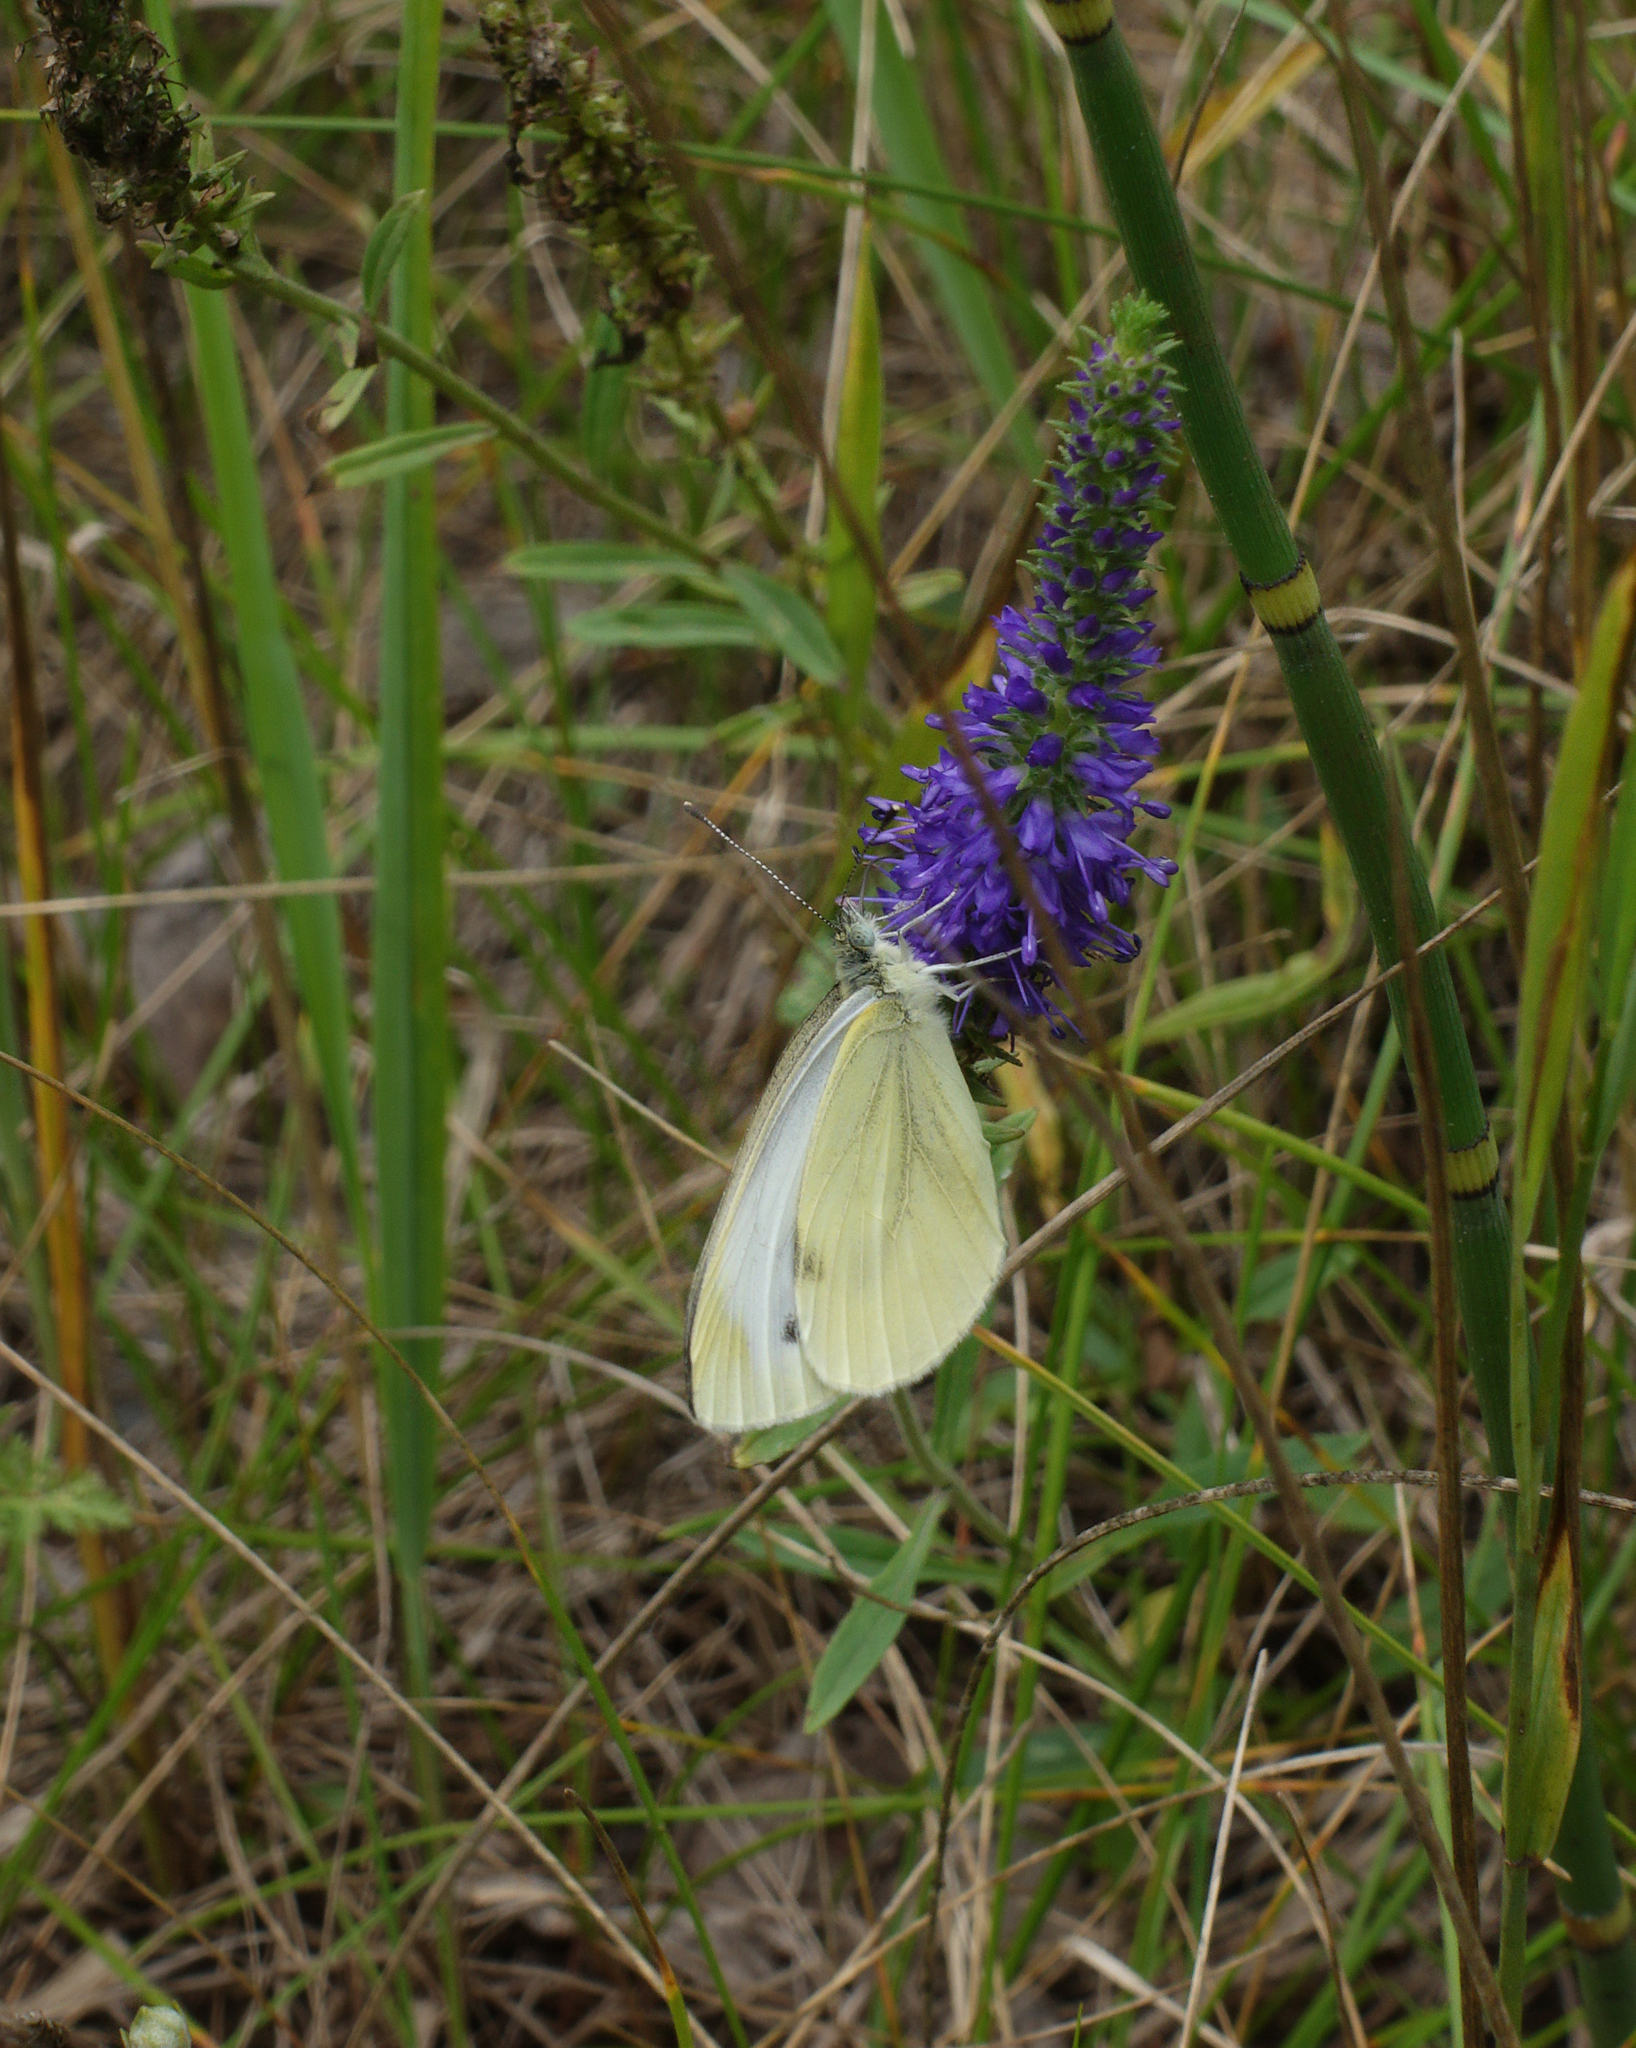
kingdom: Animalia
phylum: Arthropoda
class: Insecta
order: Lepidoptera
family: Pieridae
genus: Pieris
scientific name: Pieris napi
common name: Green-veined white
